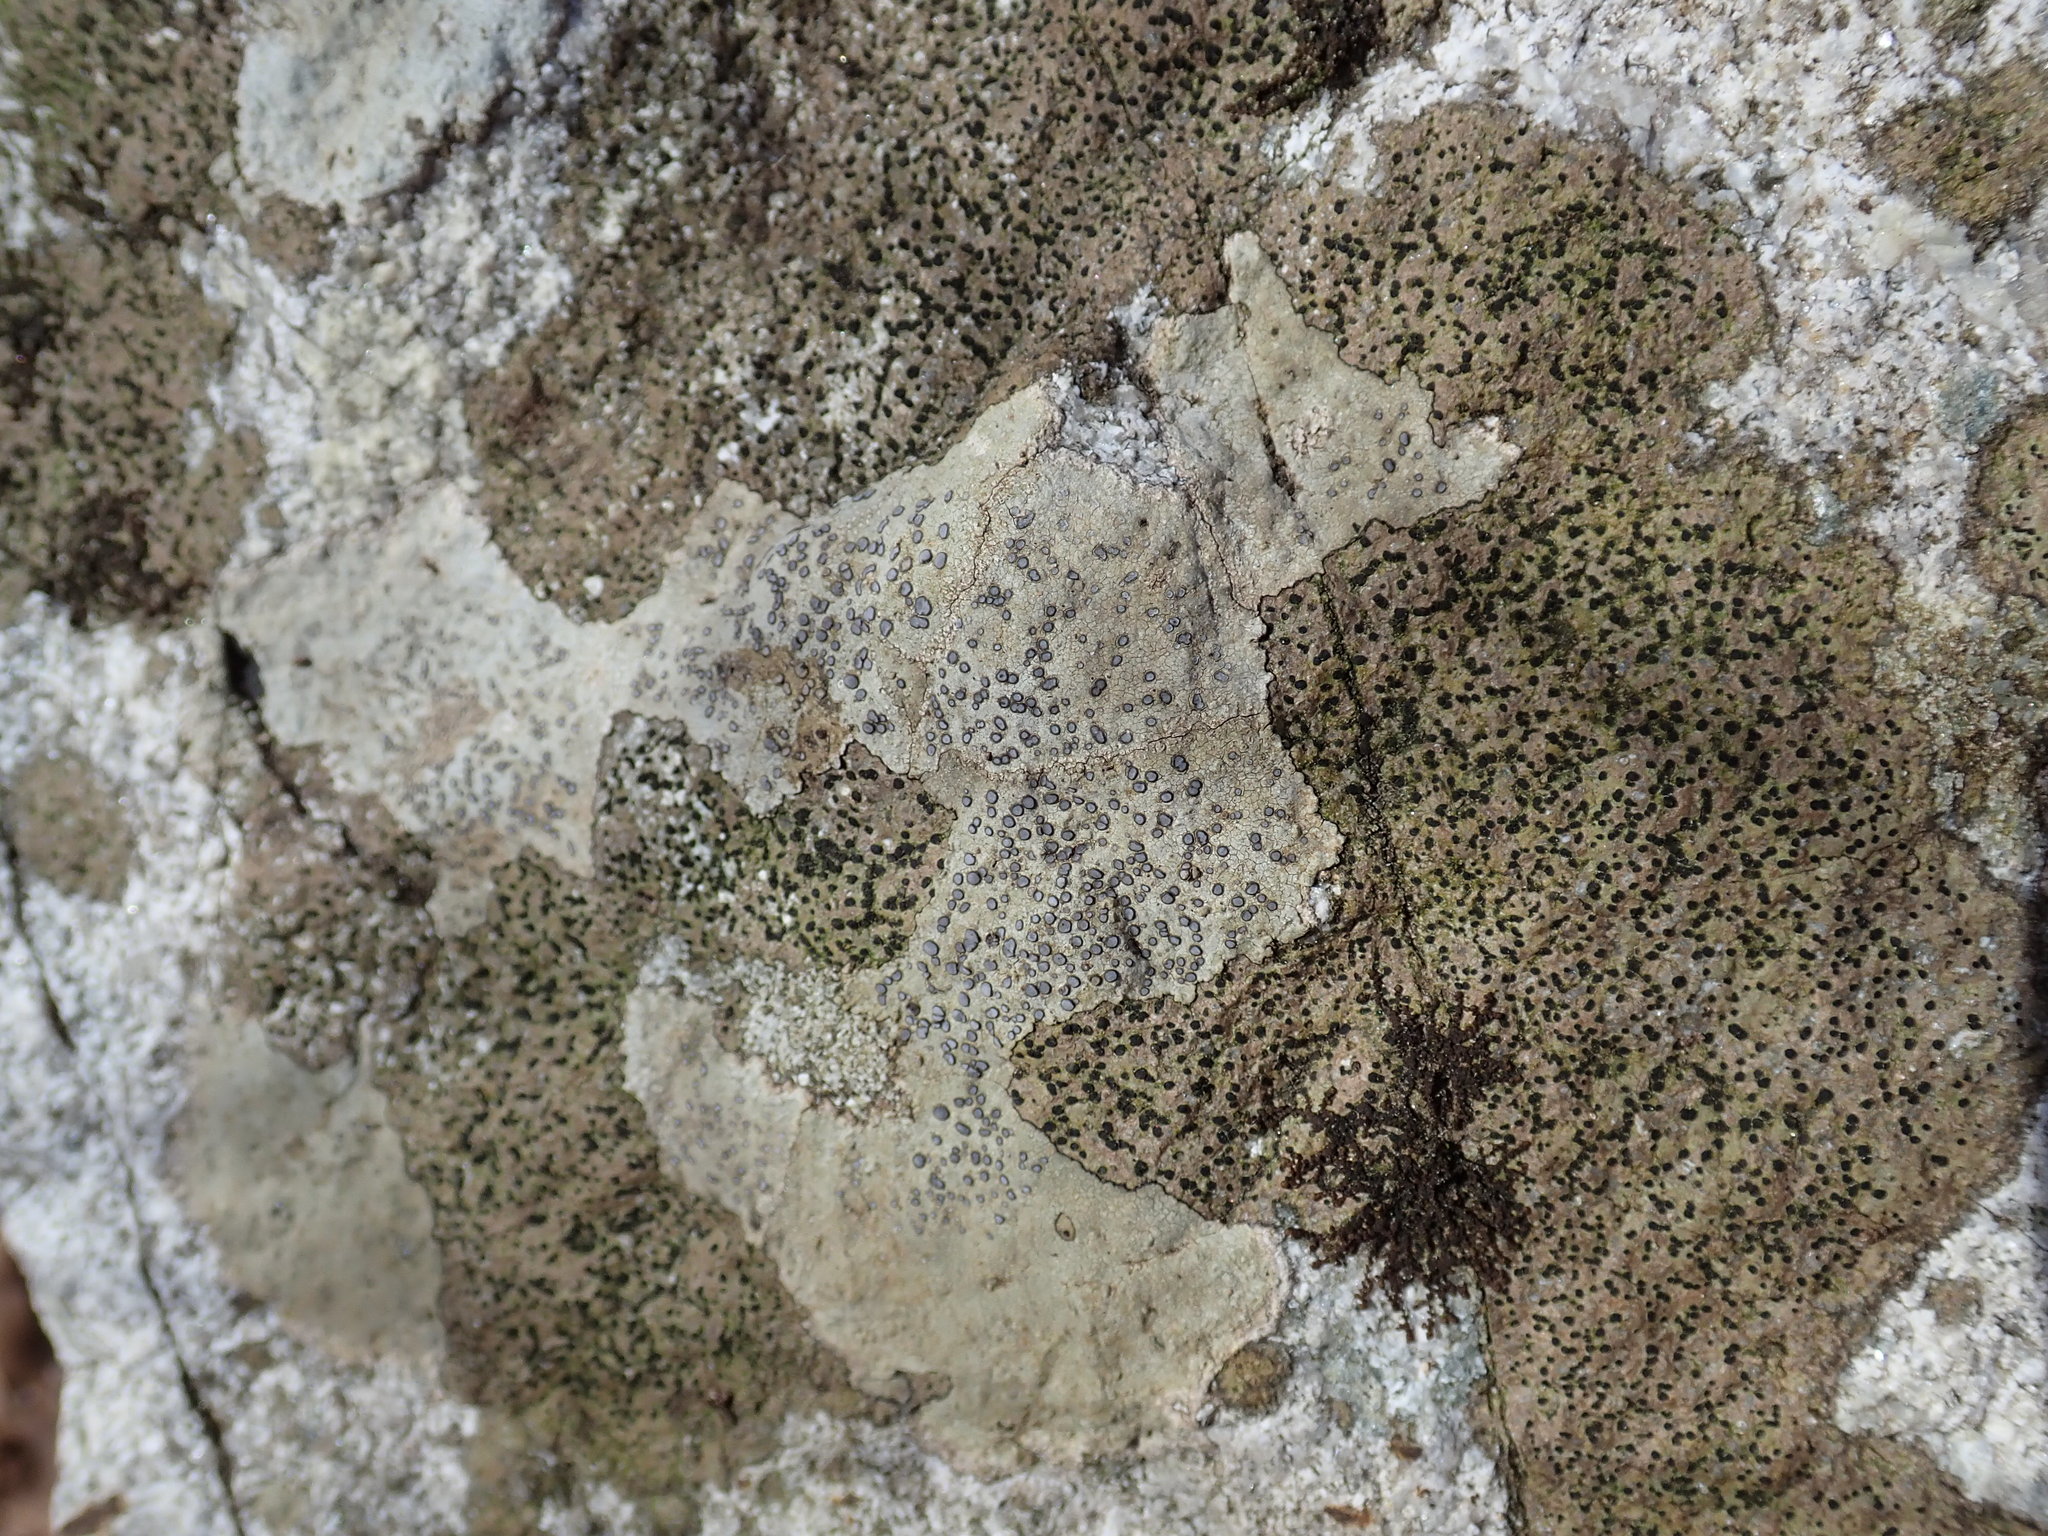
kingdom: Fungi
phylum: Ascomycota
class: Lecanoromycetes
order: Lecideales
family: Lecideaceae
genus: Porpidia
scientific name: Porpidia albocaerulescens
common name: Smokey-eyed boulder lichen
